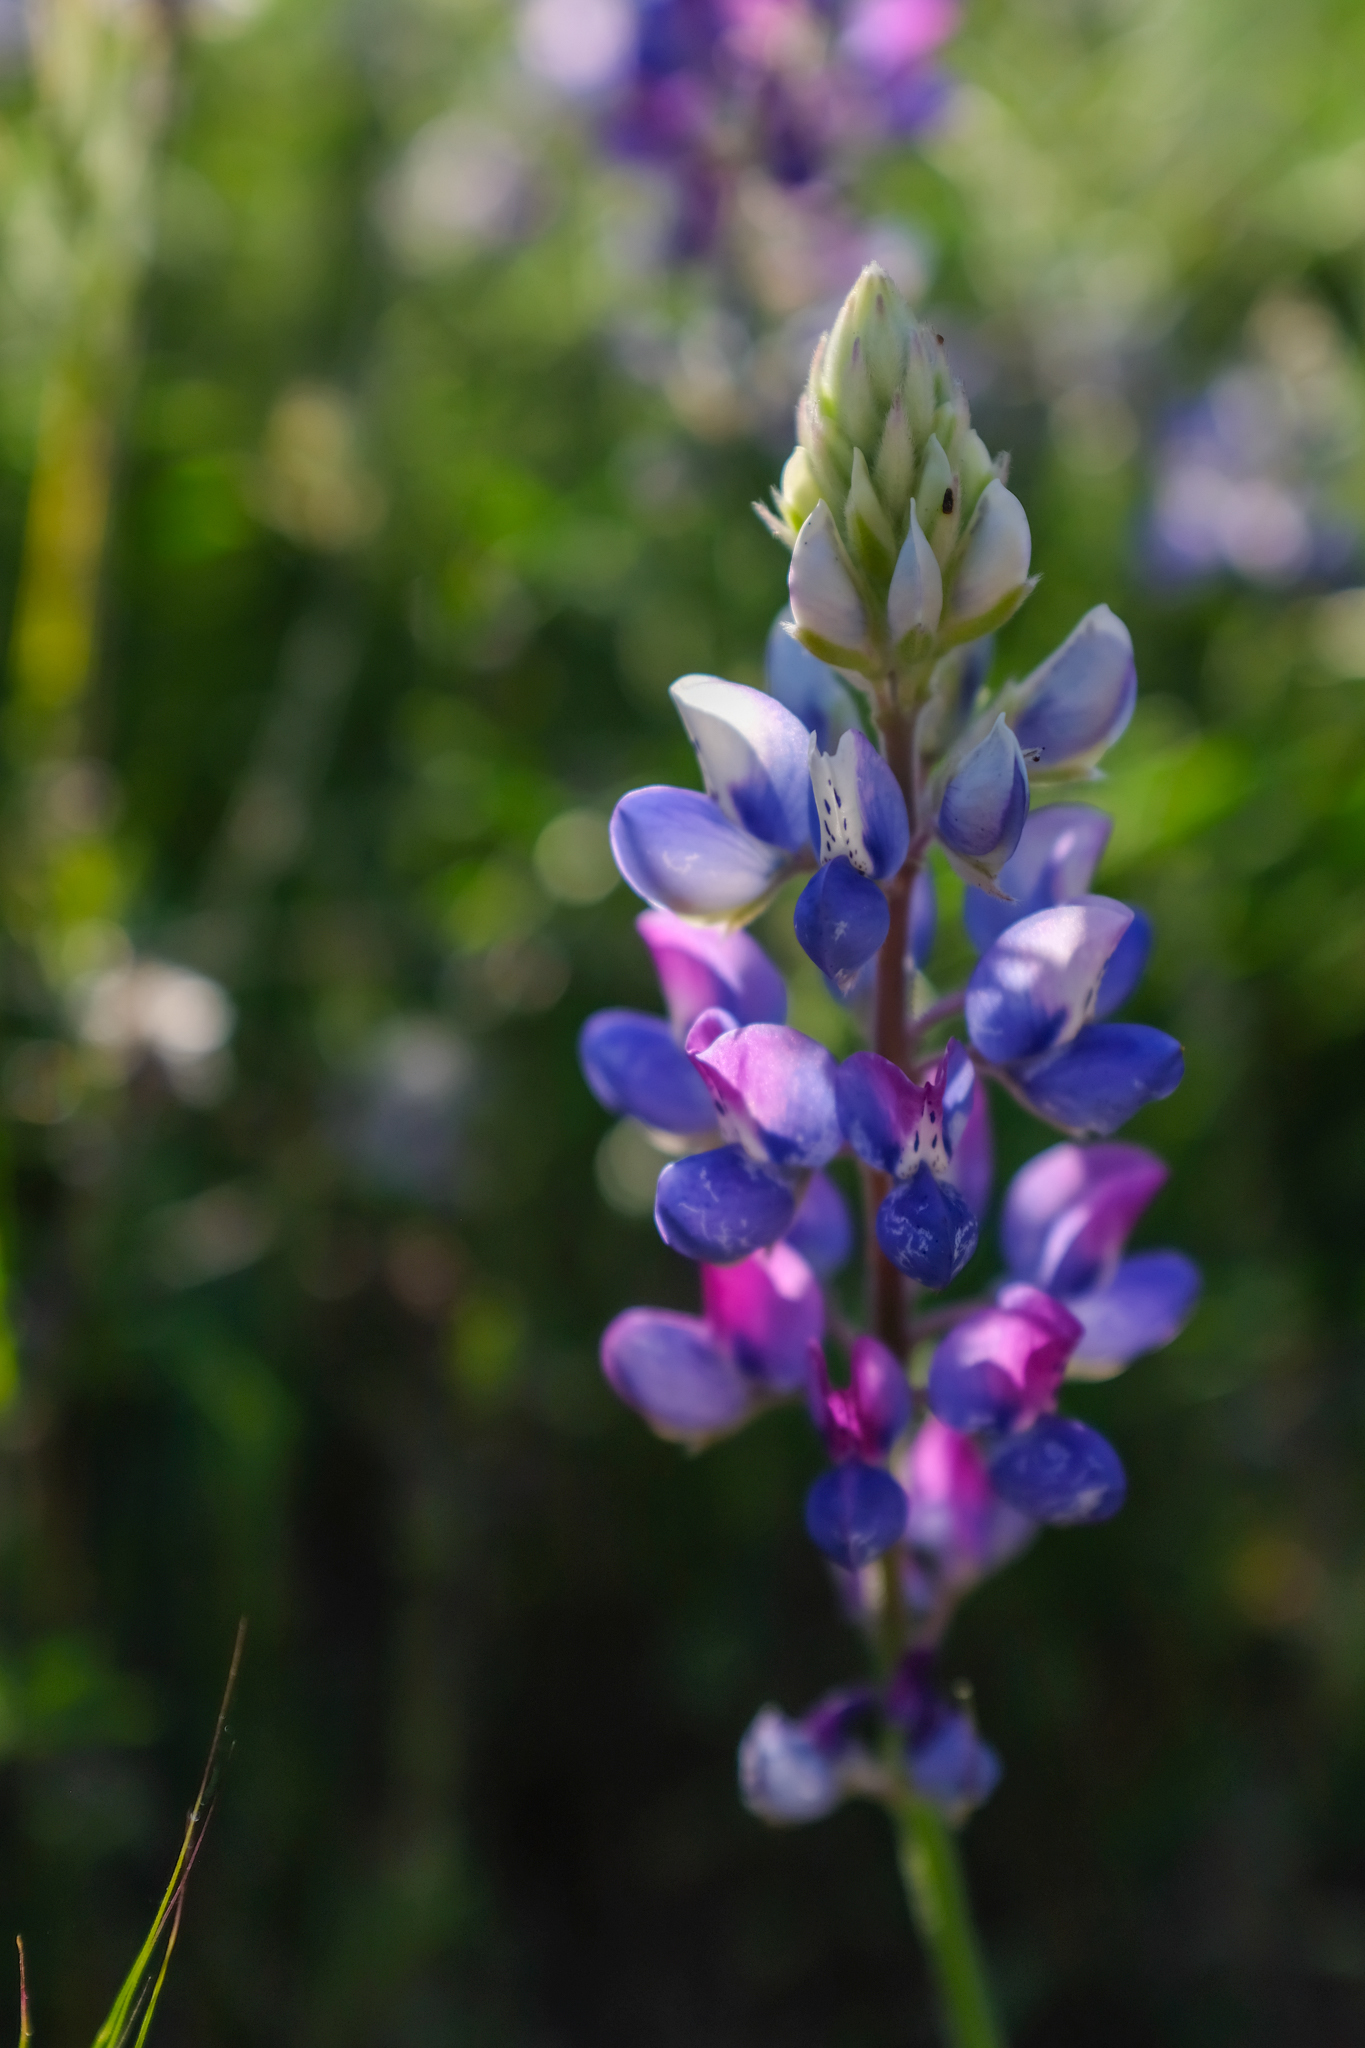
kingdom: Plantae
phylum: Tracheophyta
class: Magnoliopsida
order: Fabales
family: Fabaceae
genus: Lupinus
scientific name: Lupinus nanus
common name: Orean blue lupin
